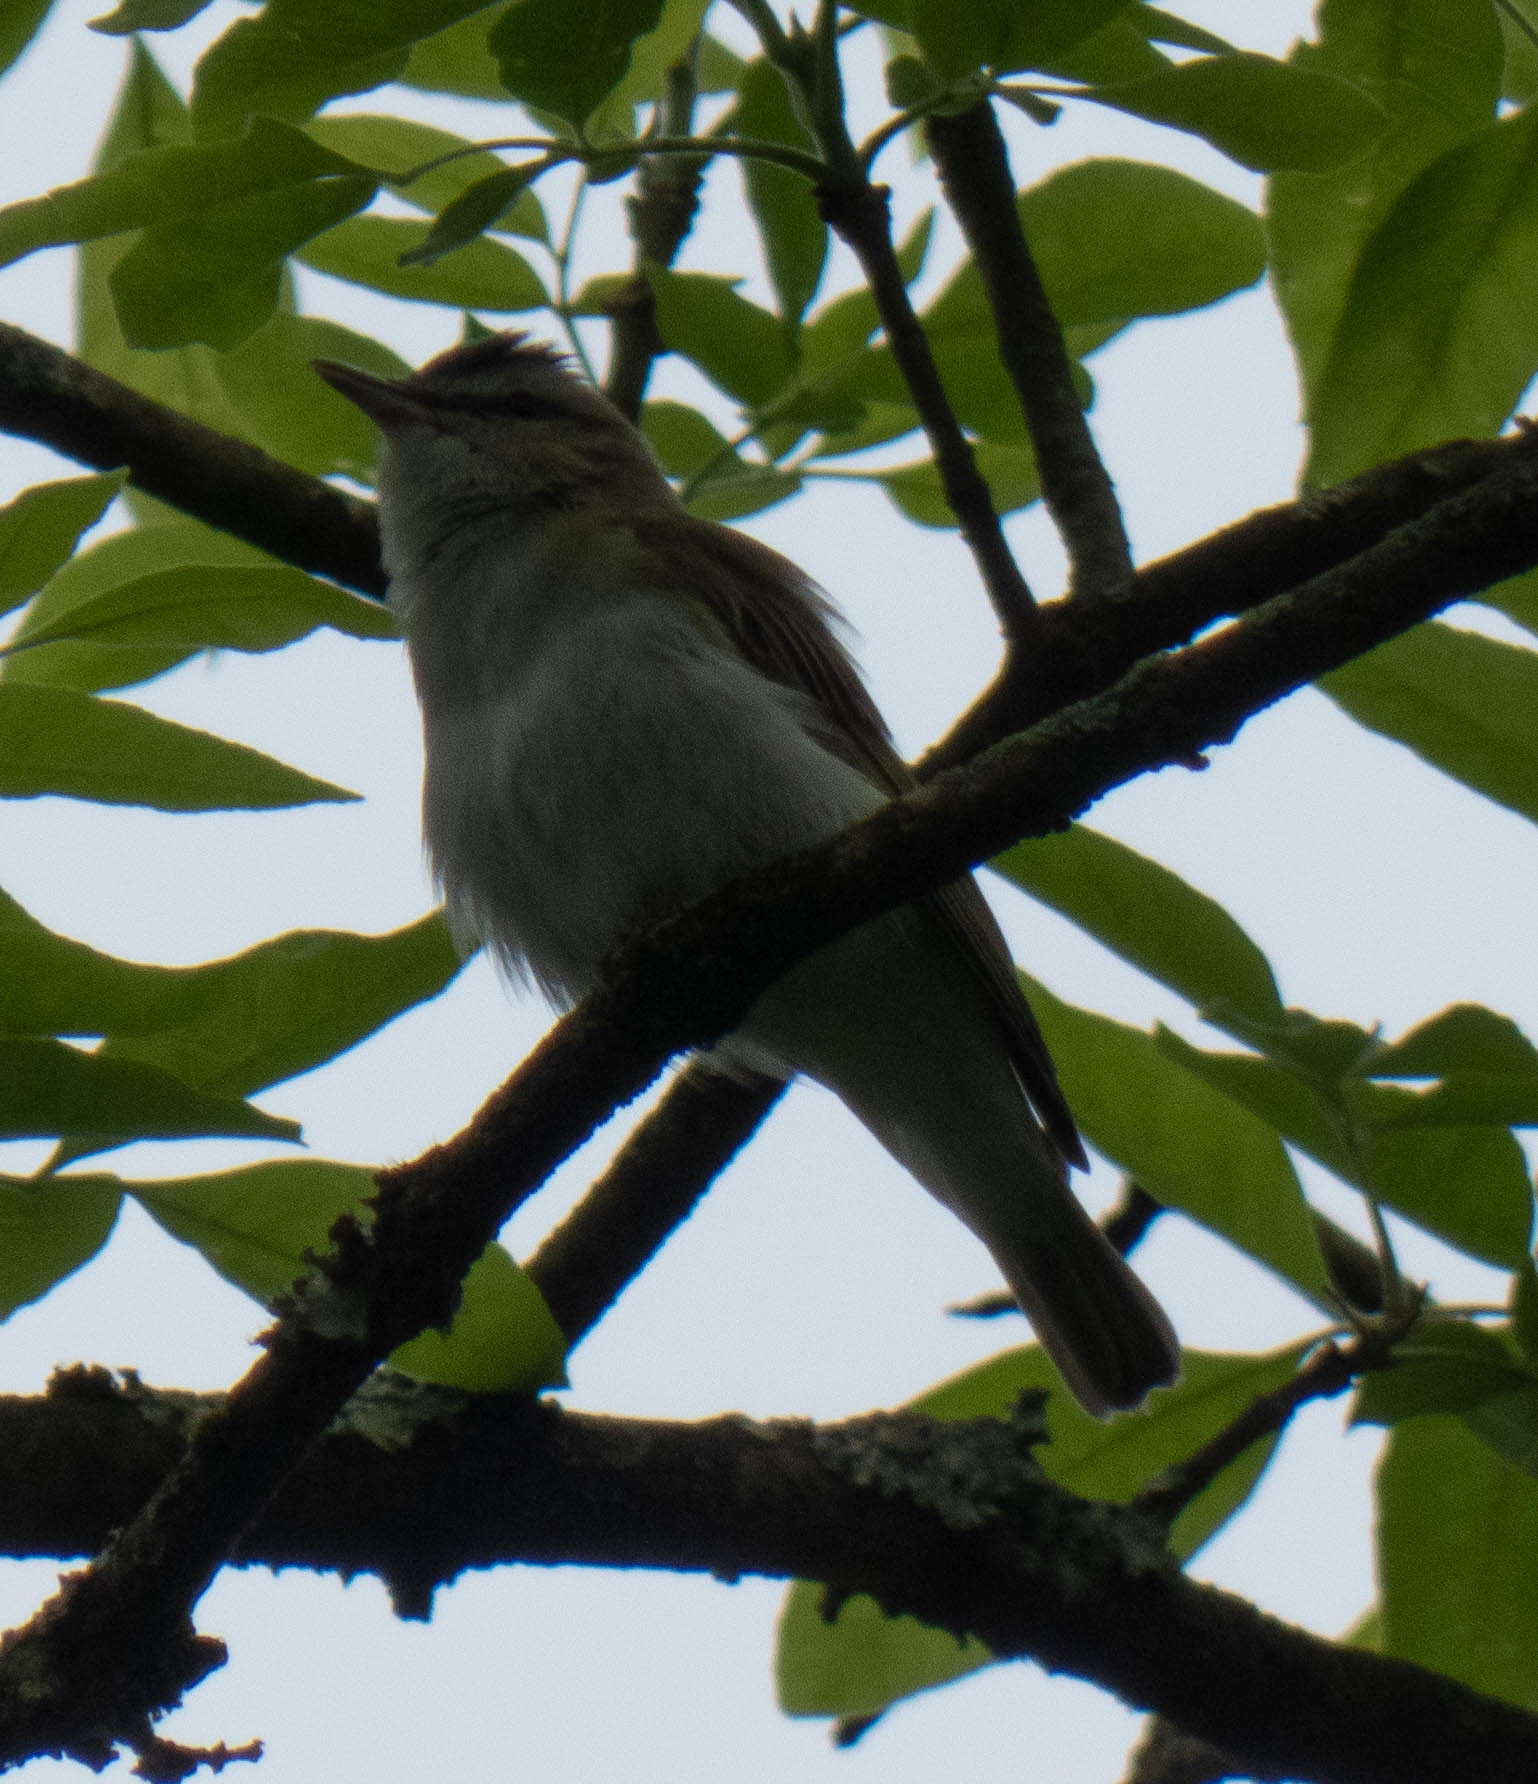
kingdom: Animalia
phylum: Chordata
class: Aves
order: Passeriformes
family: Vireonidae
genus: Vireo
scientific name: Vireo olivaceus
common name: Red-eyed vireo
